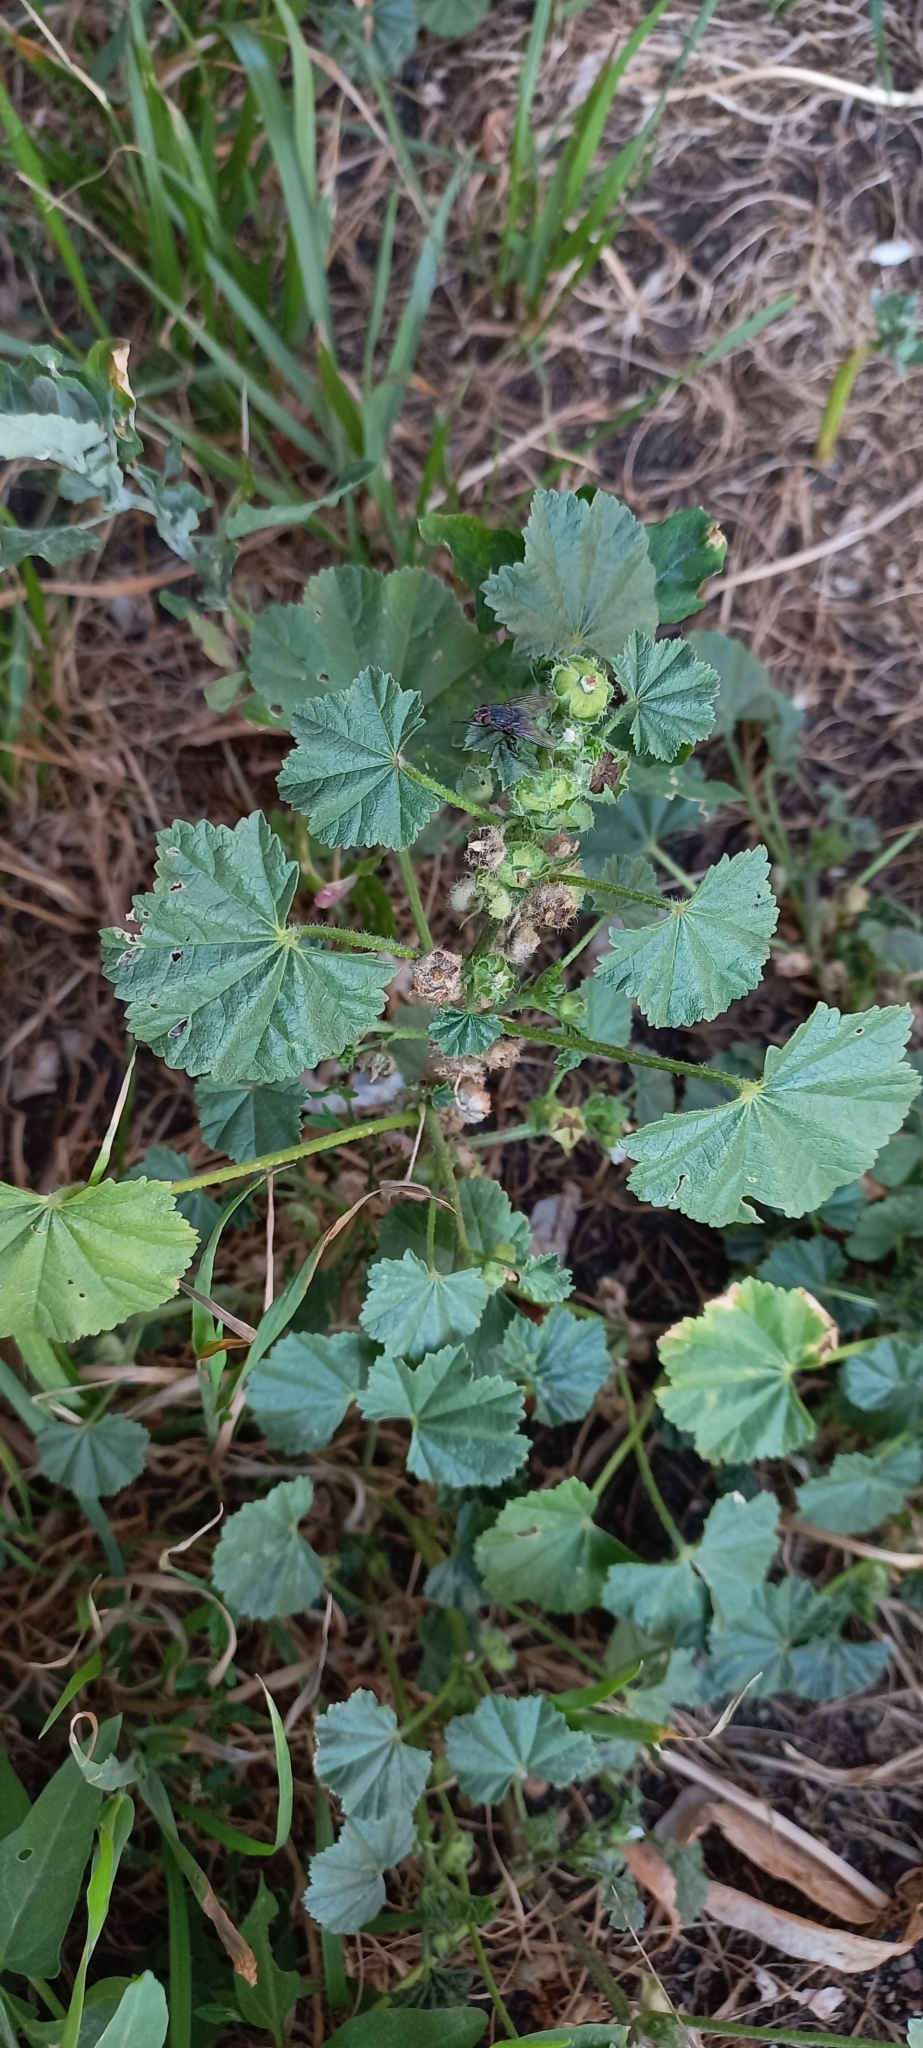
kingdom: Plantae
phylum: Tracheophyta
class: Magnoliopsida
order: Malvales
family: Malvaceae
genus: Malva
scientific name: Malva pusilla
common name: Small mallow
